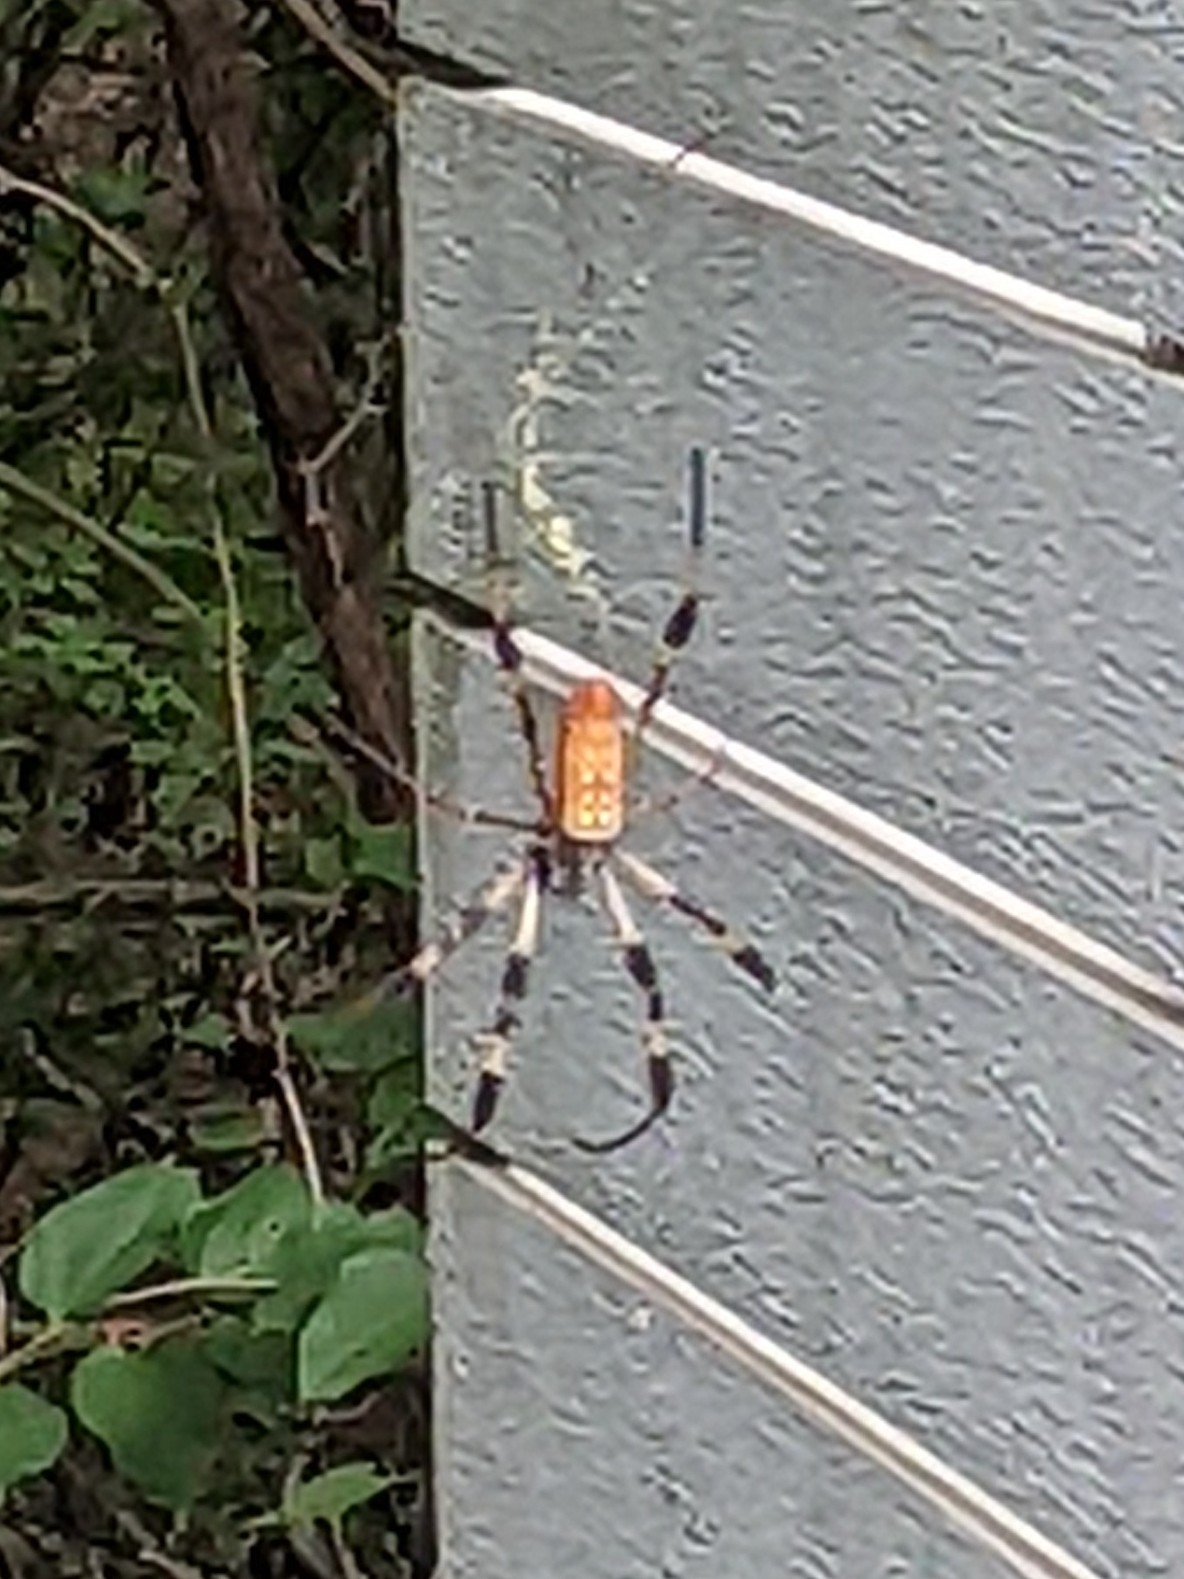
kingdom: Animalia
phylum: Arthropoda
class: Arachnida
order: Araneae
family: Araneidae
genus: Trichonephila
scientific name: Trichonephila clavipes
